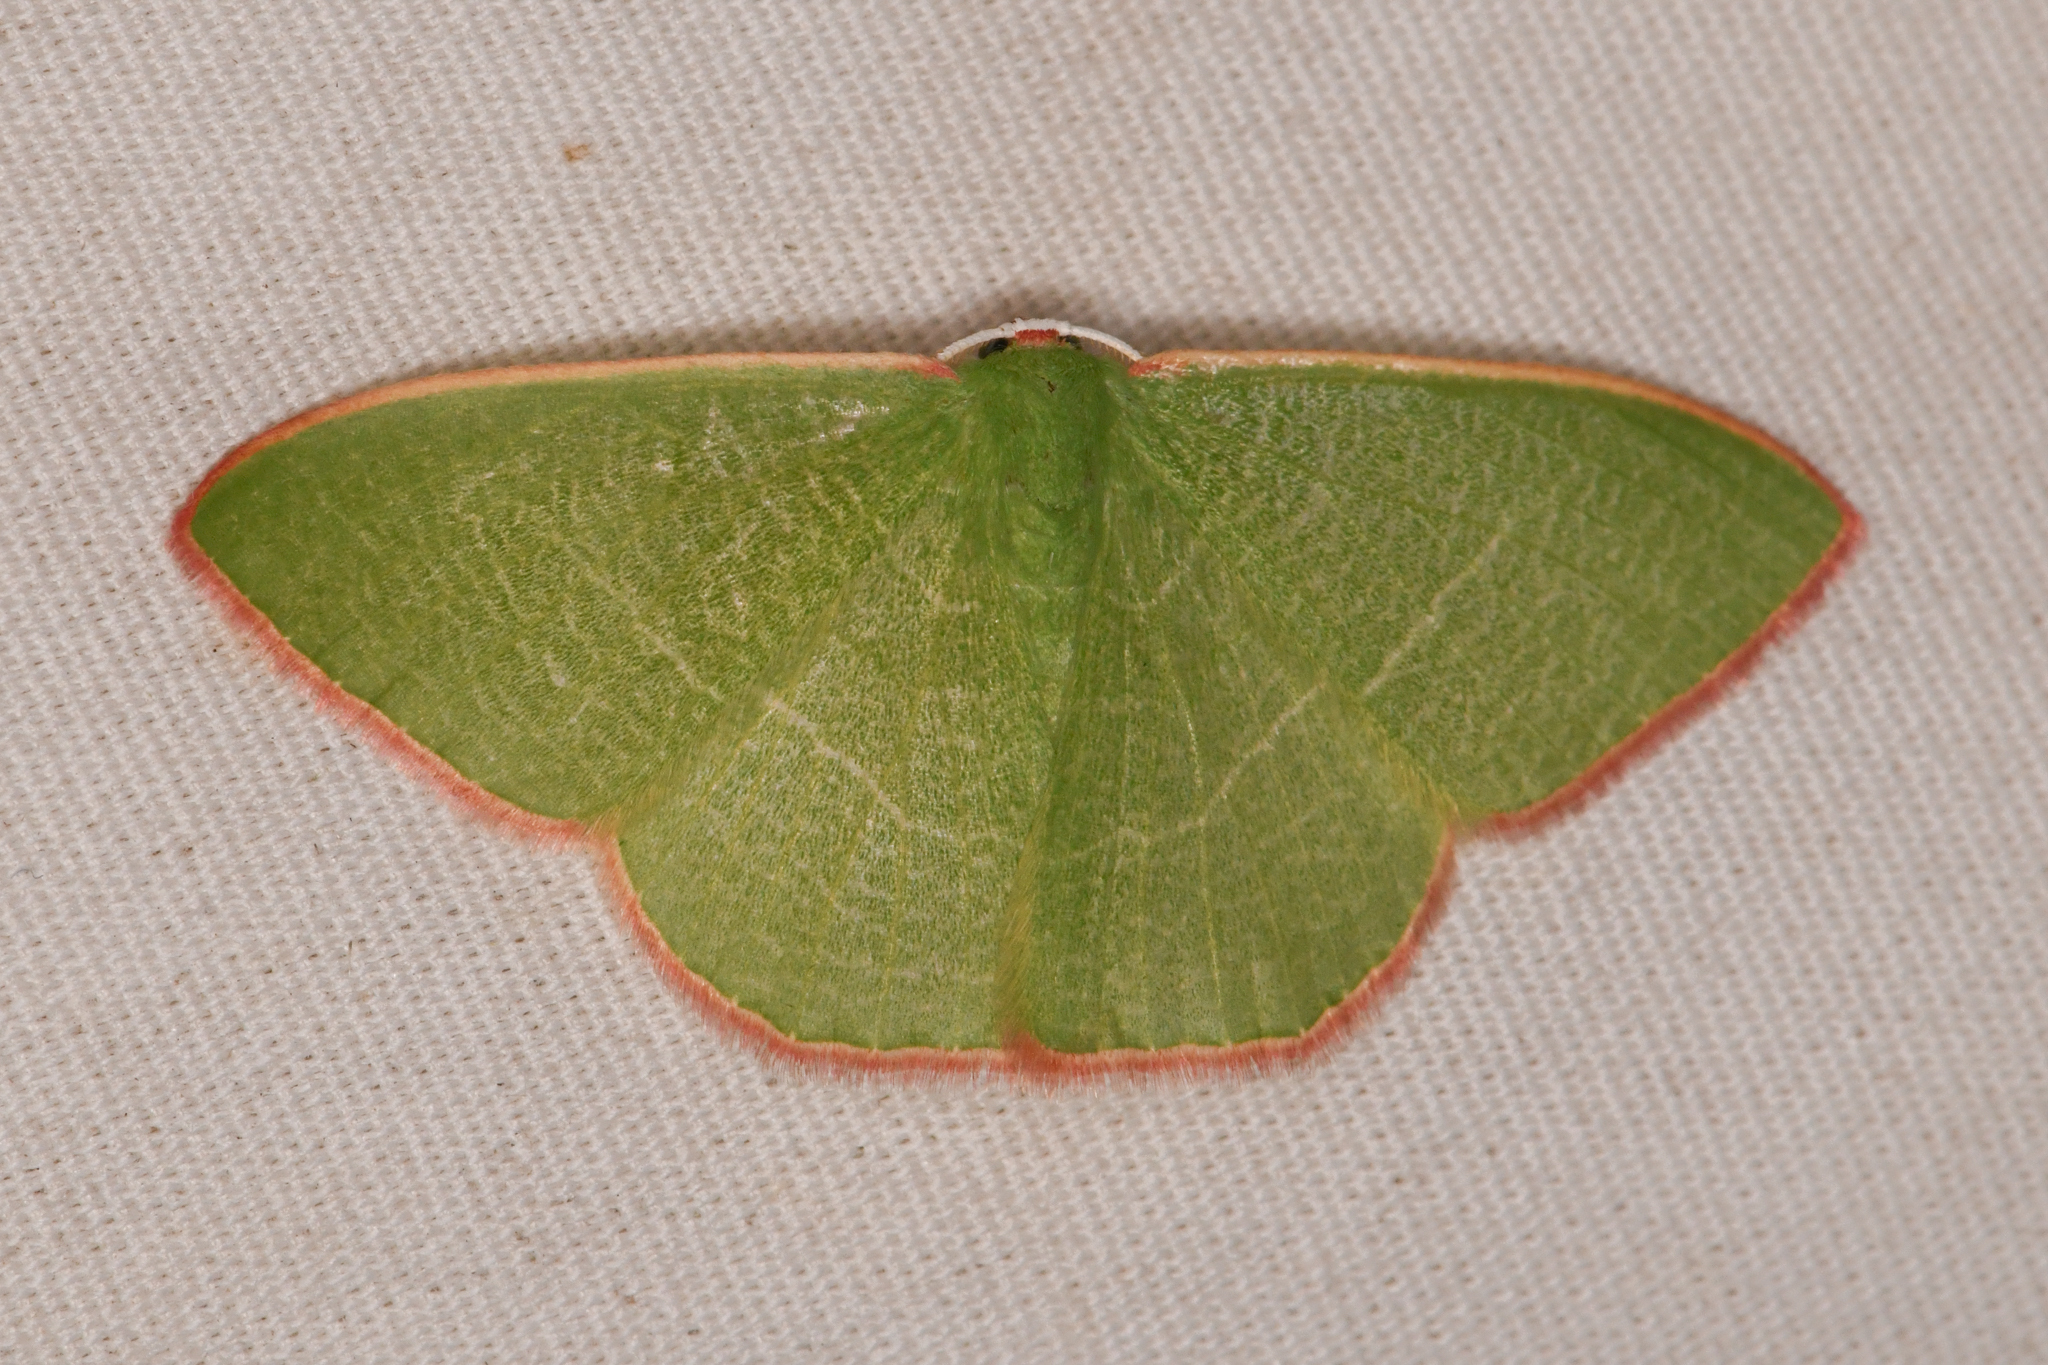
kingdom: Animalia
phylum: Arthropoda
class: Insecta
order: Lepidoptera
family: Geometridae
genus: Nemoria
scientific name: Nemoria leptalea
